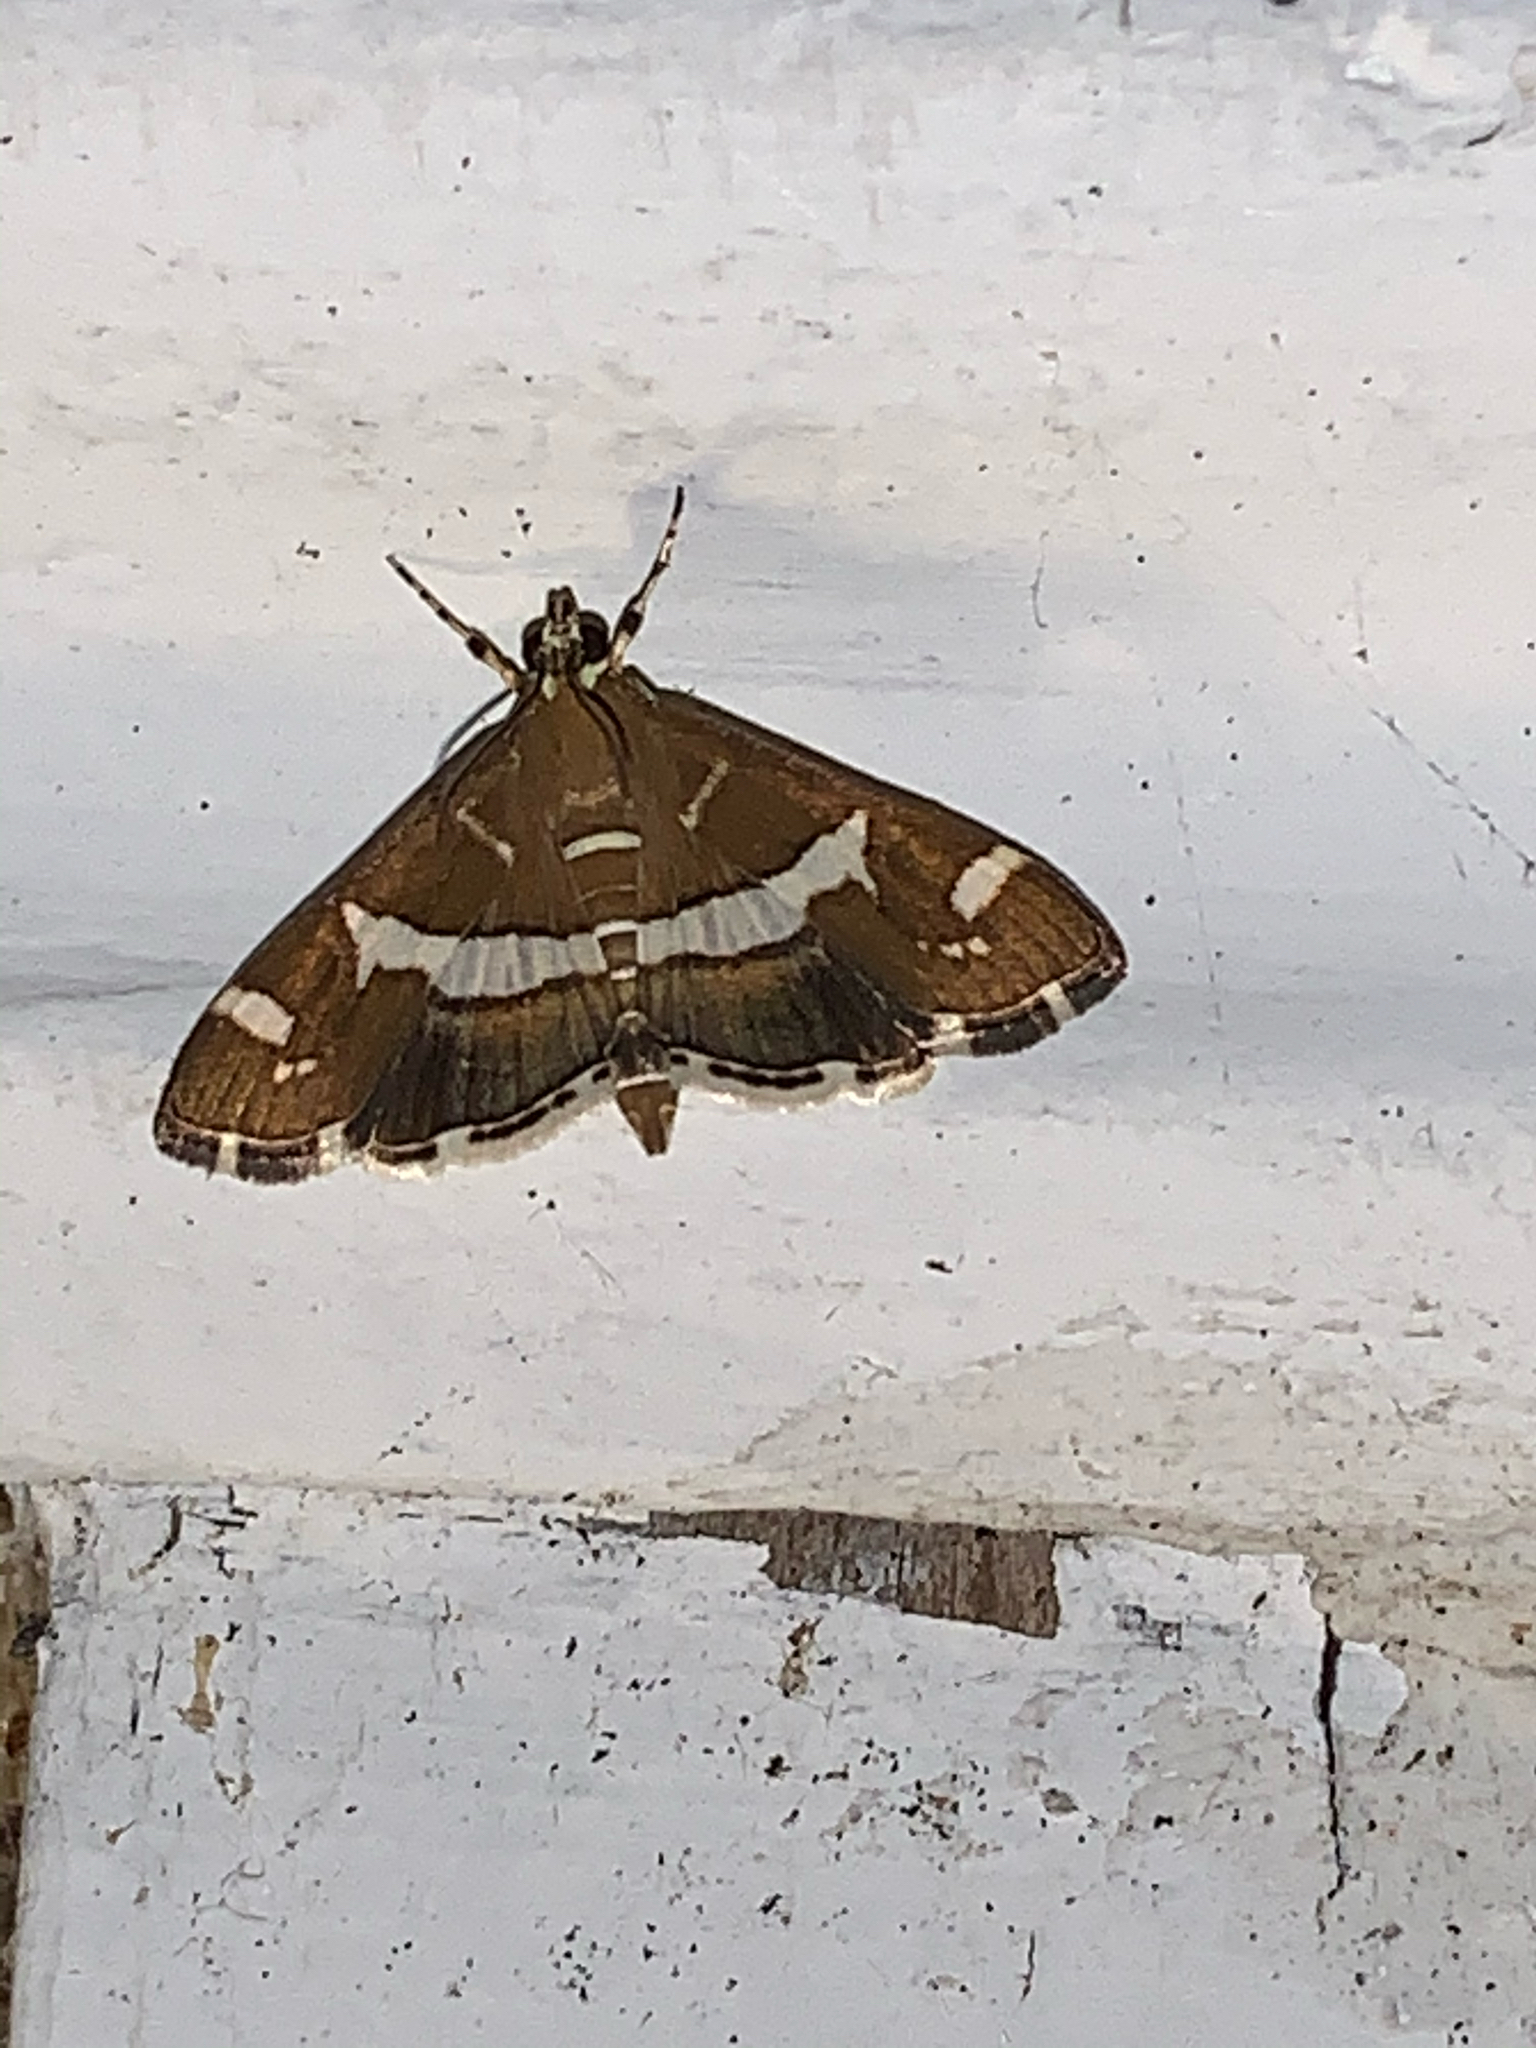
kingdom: Animalia
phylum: Arthropoda
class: Insecta
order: Lepidoptera
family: Crambidae
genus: Spoladea
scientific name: Spoladea recurvalis
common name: Beet webworm moth
